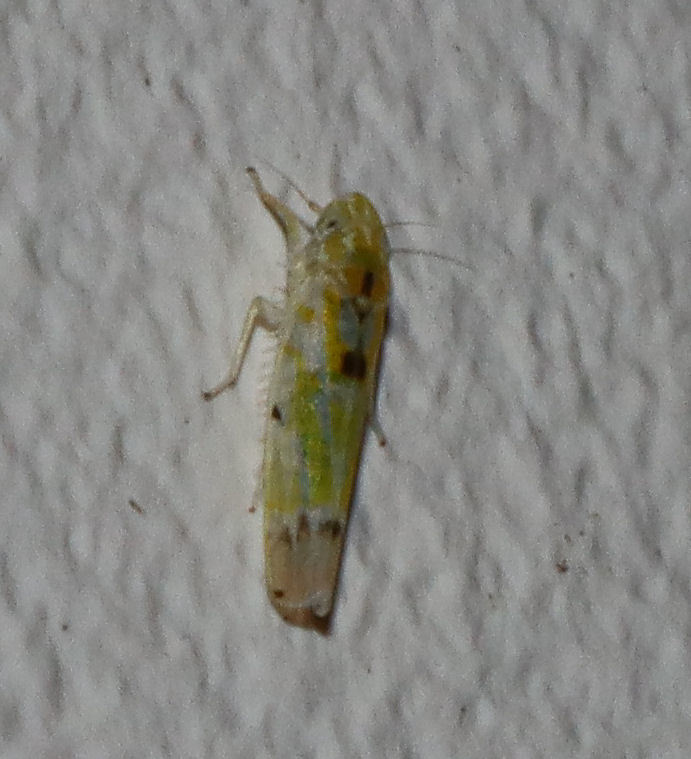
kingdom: Animalia
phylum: Arthropoda
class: Insecta
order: Hemiptera
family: Cicadellidae
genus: Erythroneura
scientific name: Erythroneura octonotata
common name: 8-spotted leafhopper
